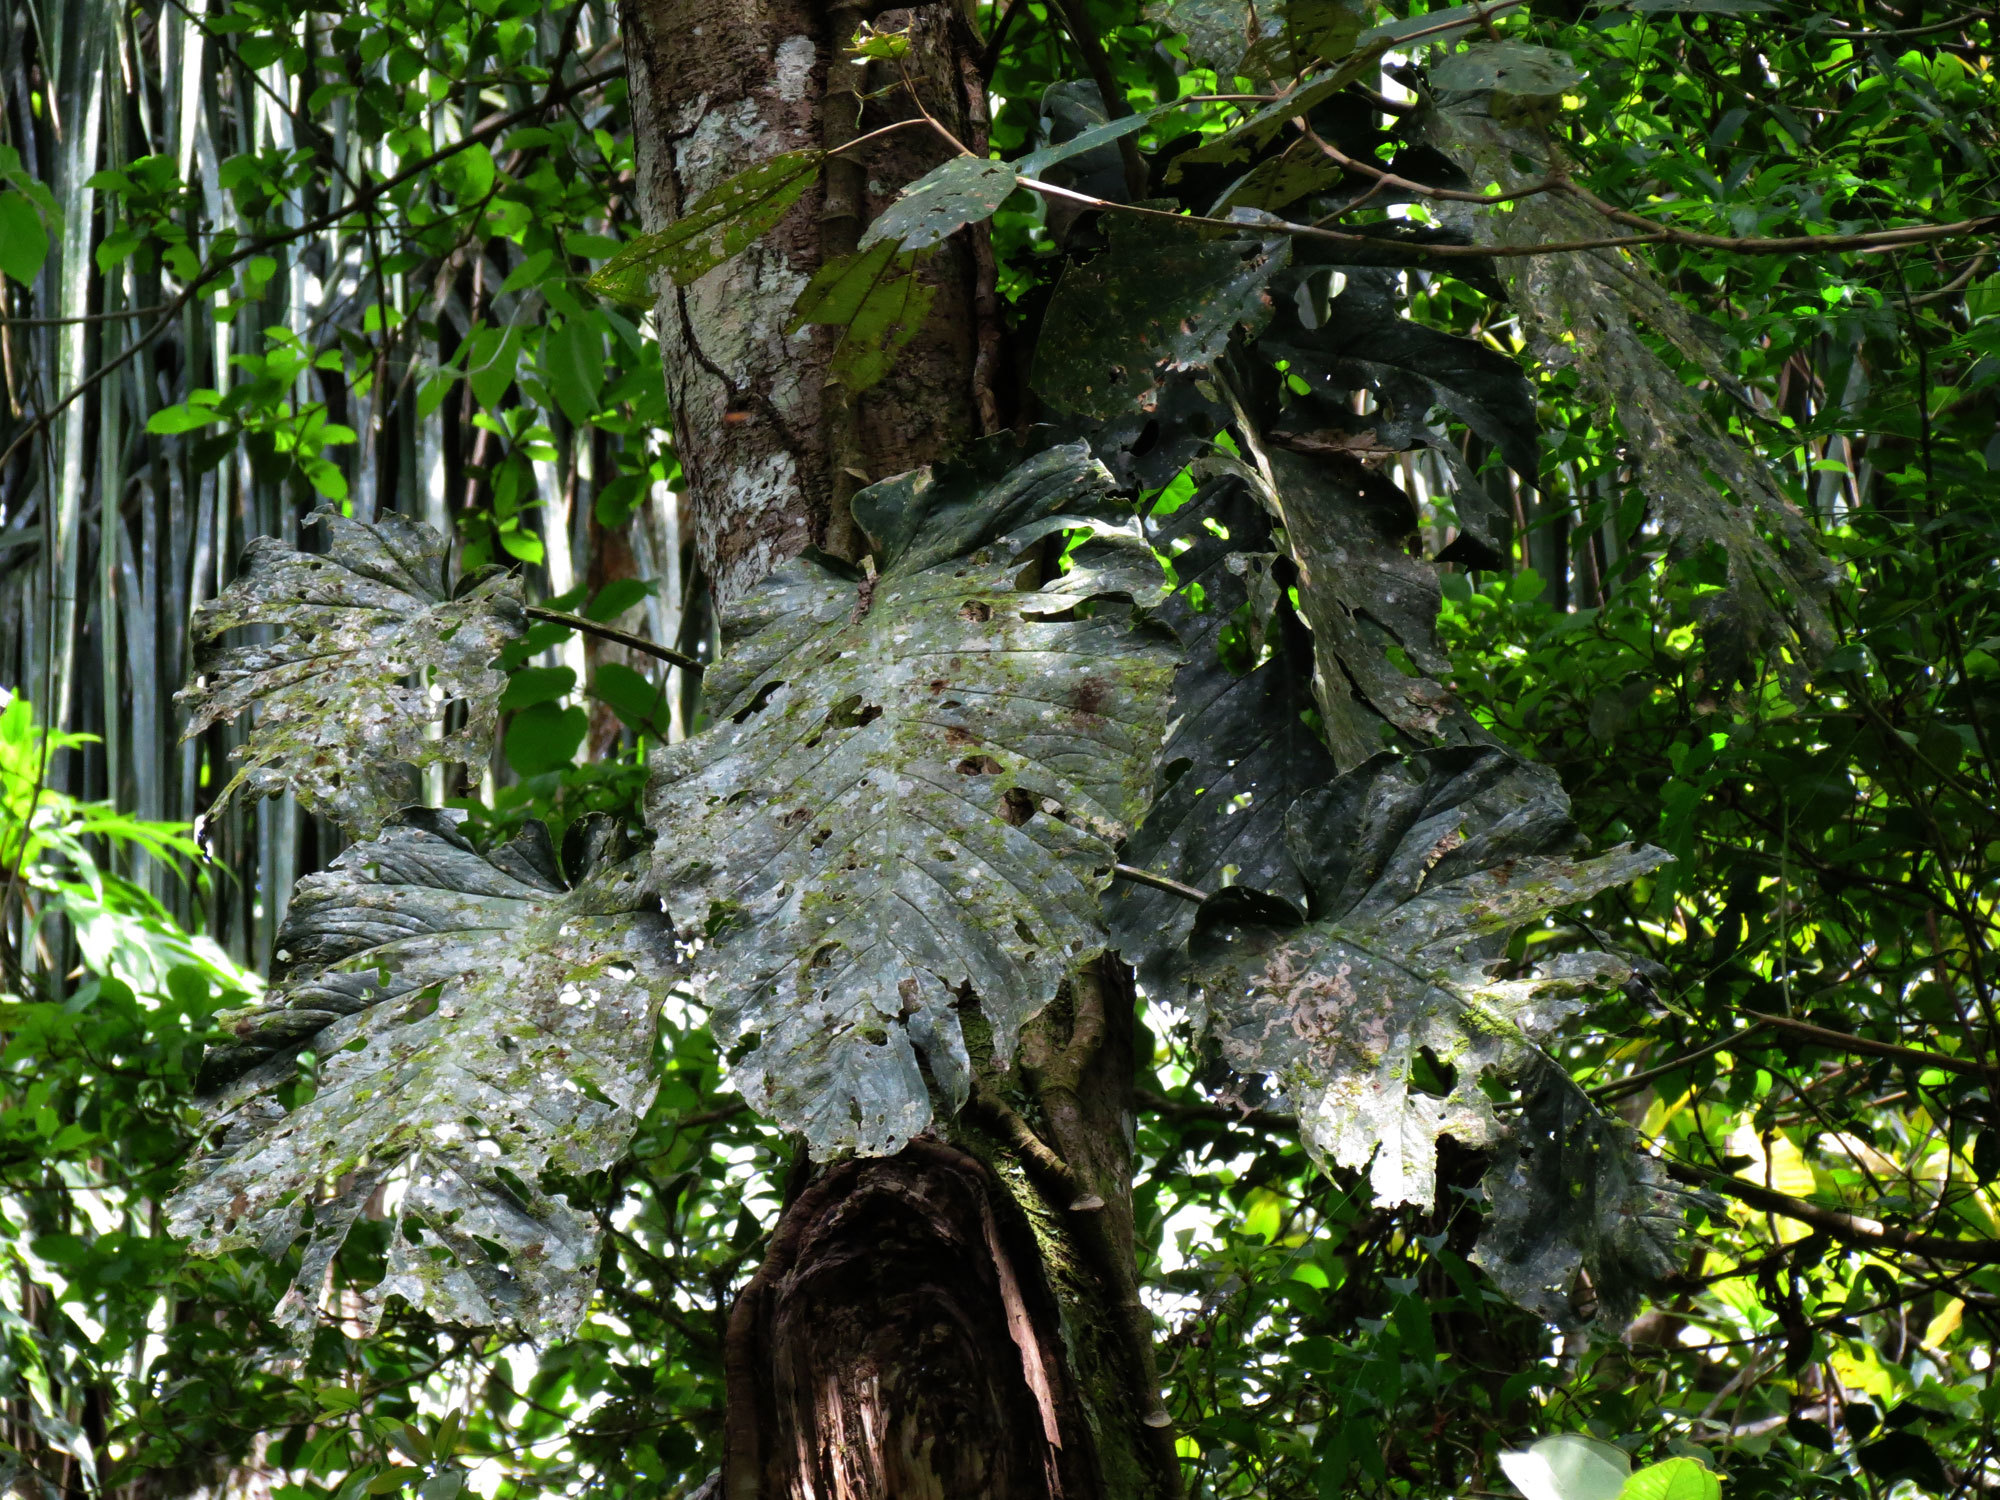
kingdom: Plantae
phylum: Tracheophyta
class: Liliopsida
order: Alismatales
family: Araceae
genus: Monstera
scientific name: Monstera dubia
